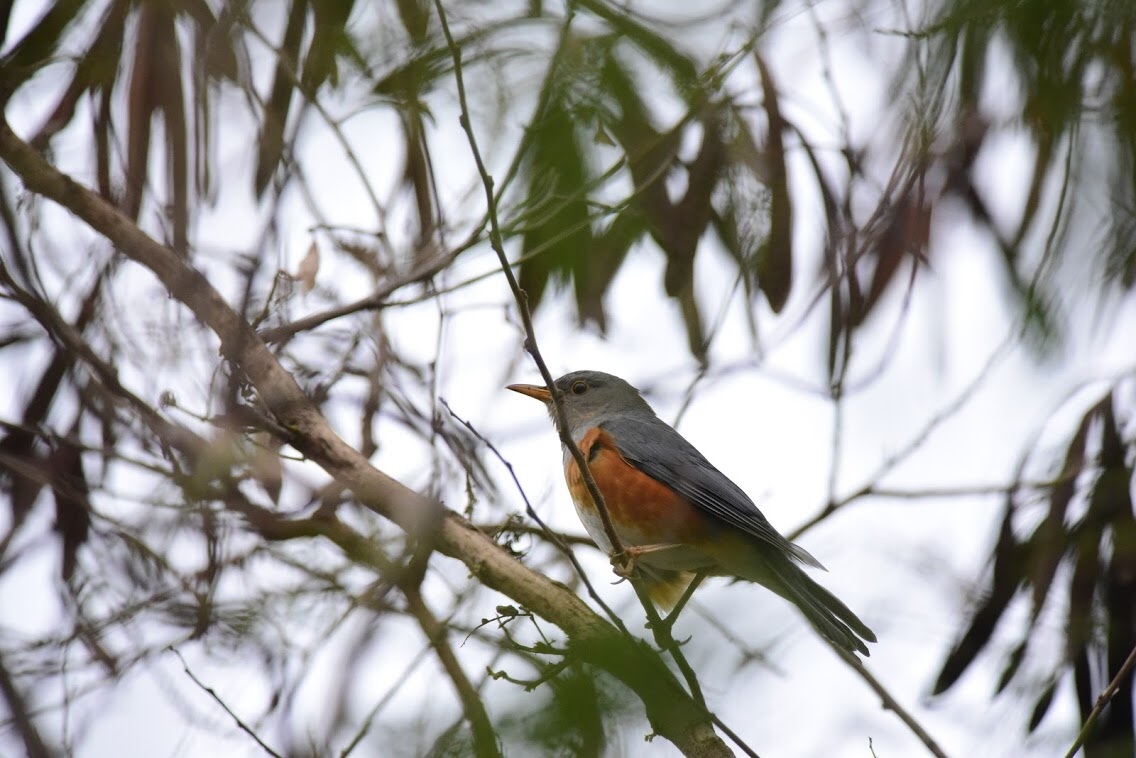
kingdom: Animalia
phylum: Chordata
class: Aves
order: Passeriformes
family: Turdidae
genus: Turdus
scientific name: Turdus hortulorum
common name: Grey-backed thrush
